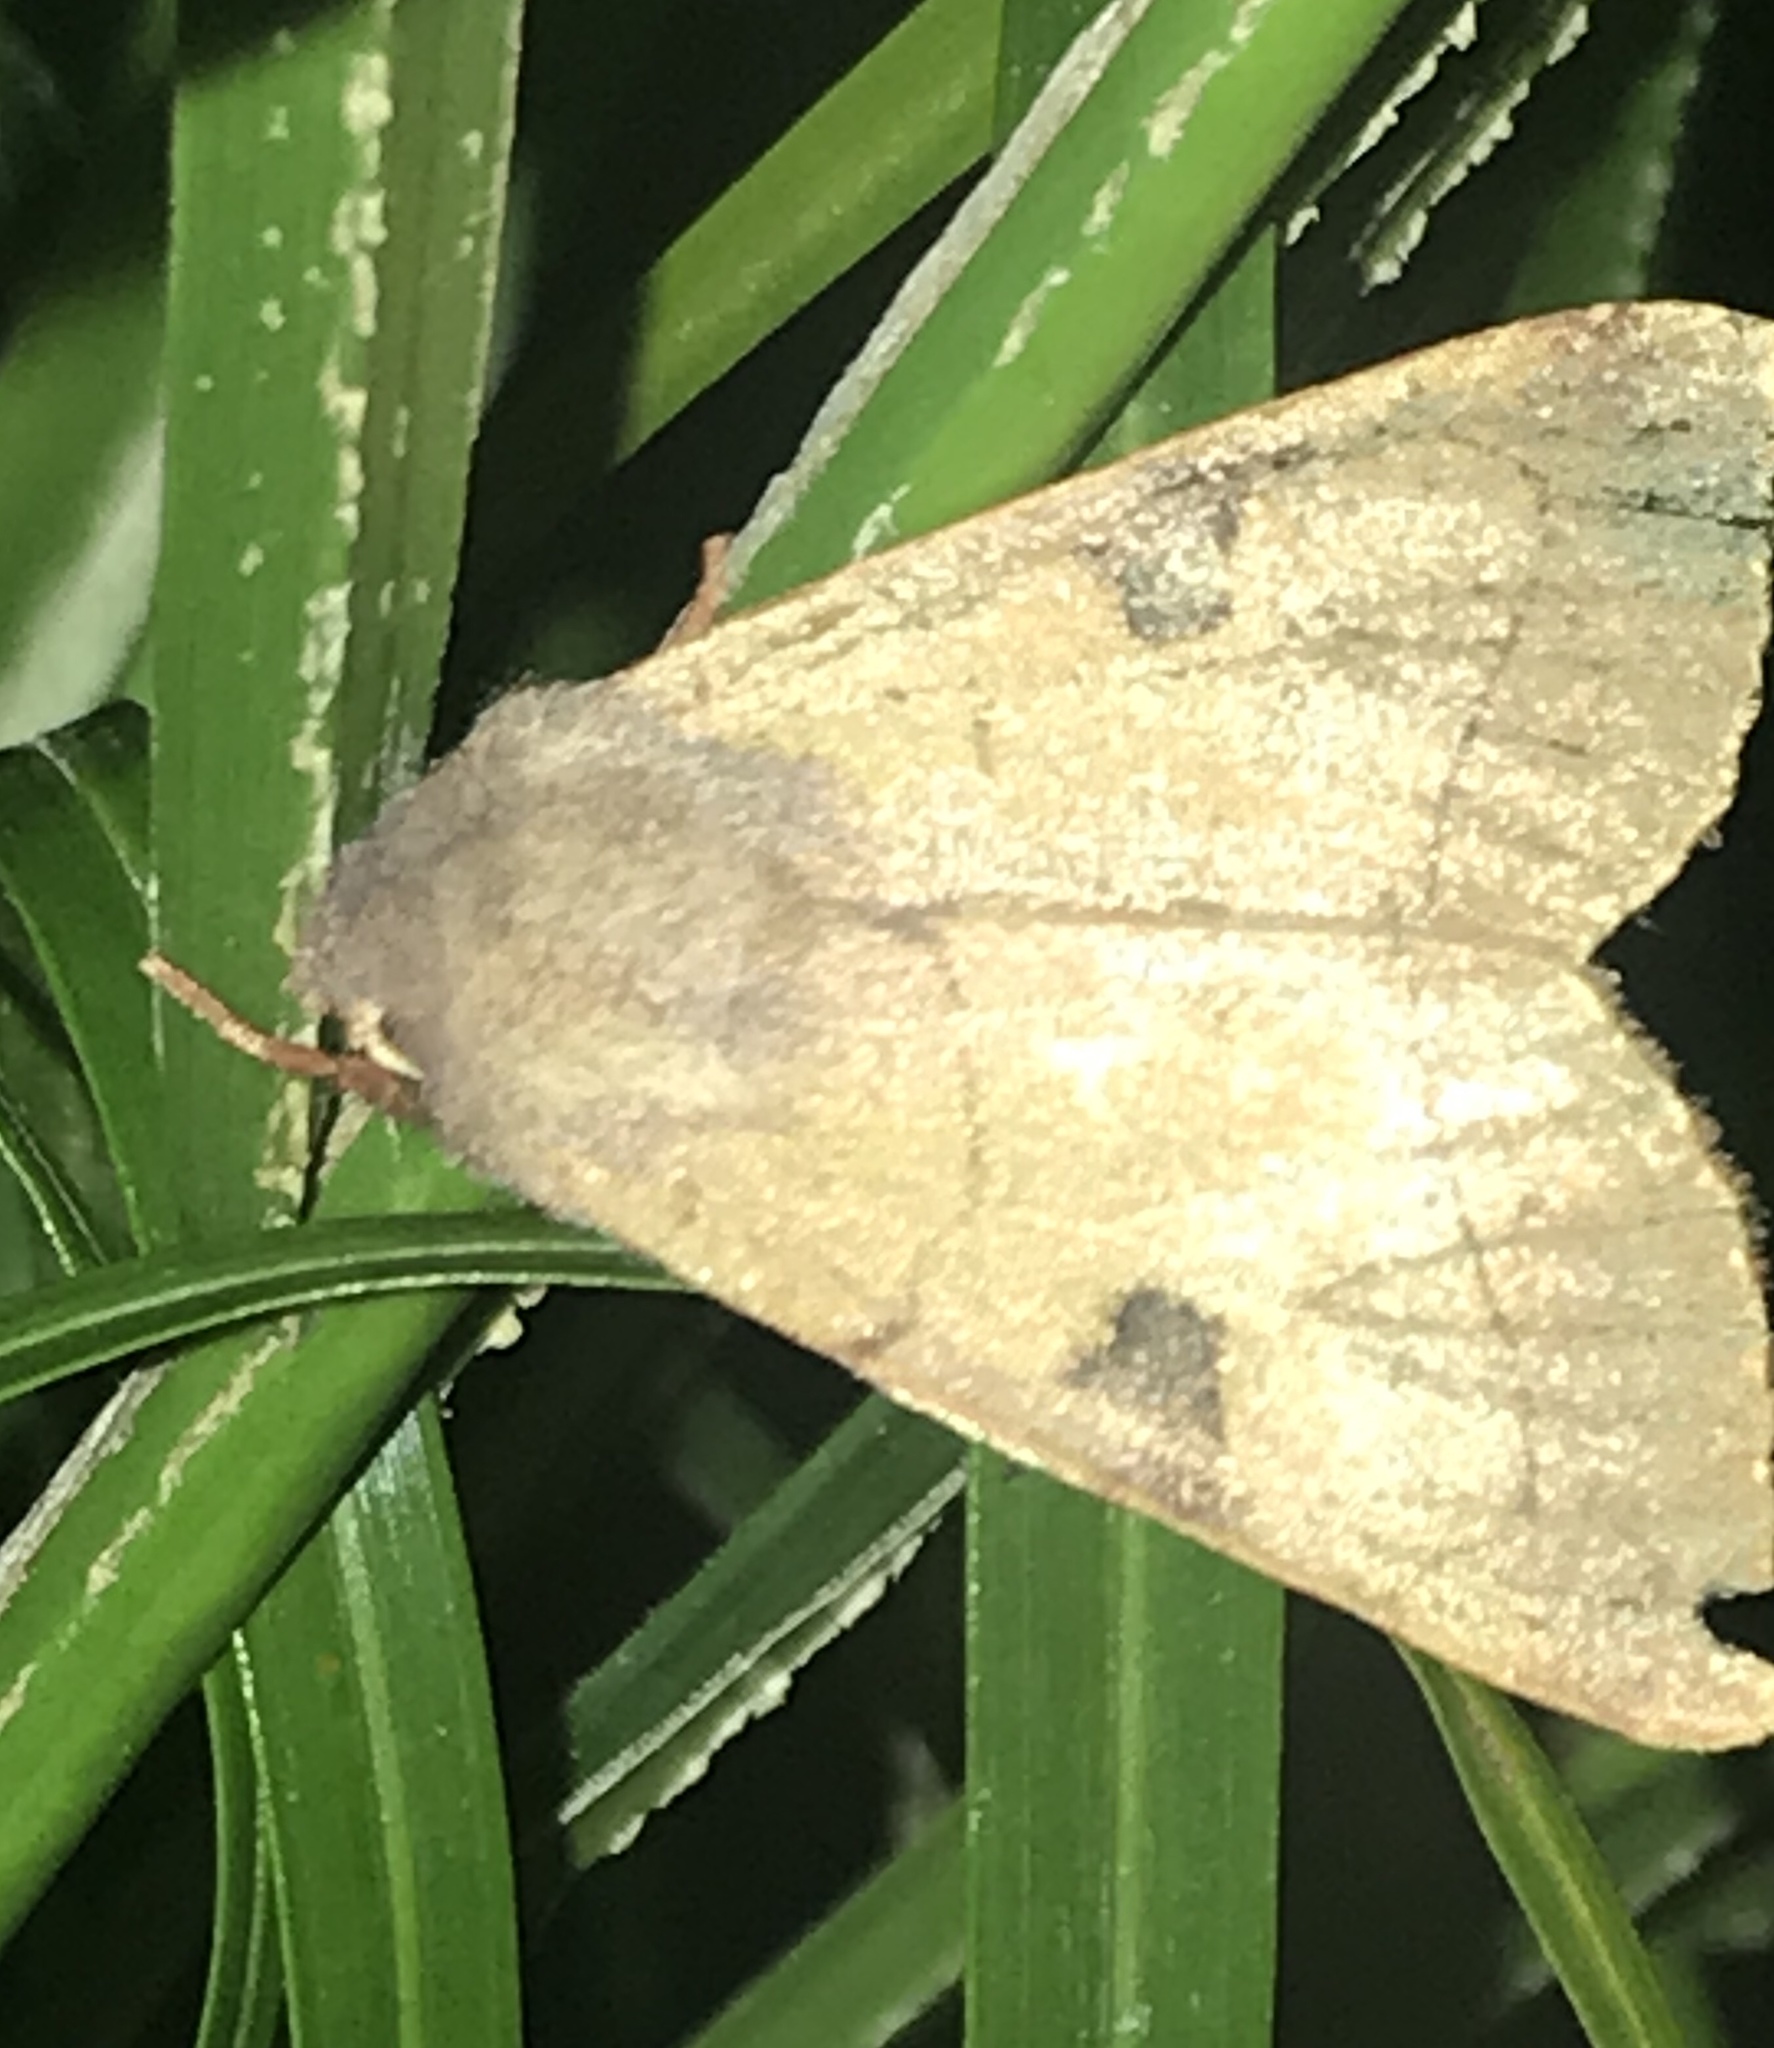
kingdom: Animalia
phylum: Arthropoda
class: Insecta
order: Lepidoptera
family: Noctuidae
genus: Choephora
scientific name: Choephora fungorum
